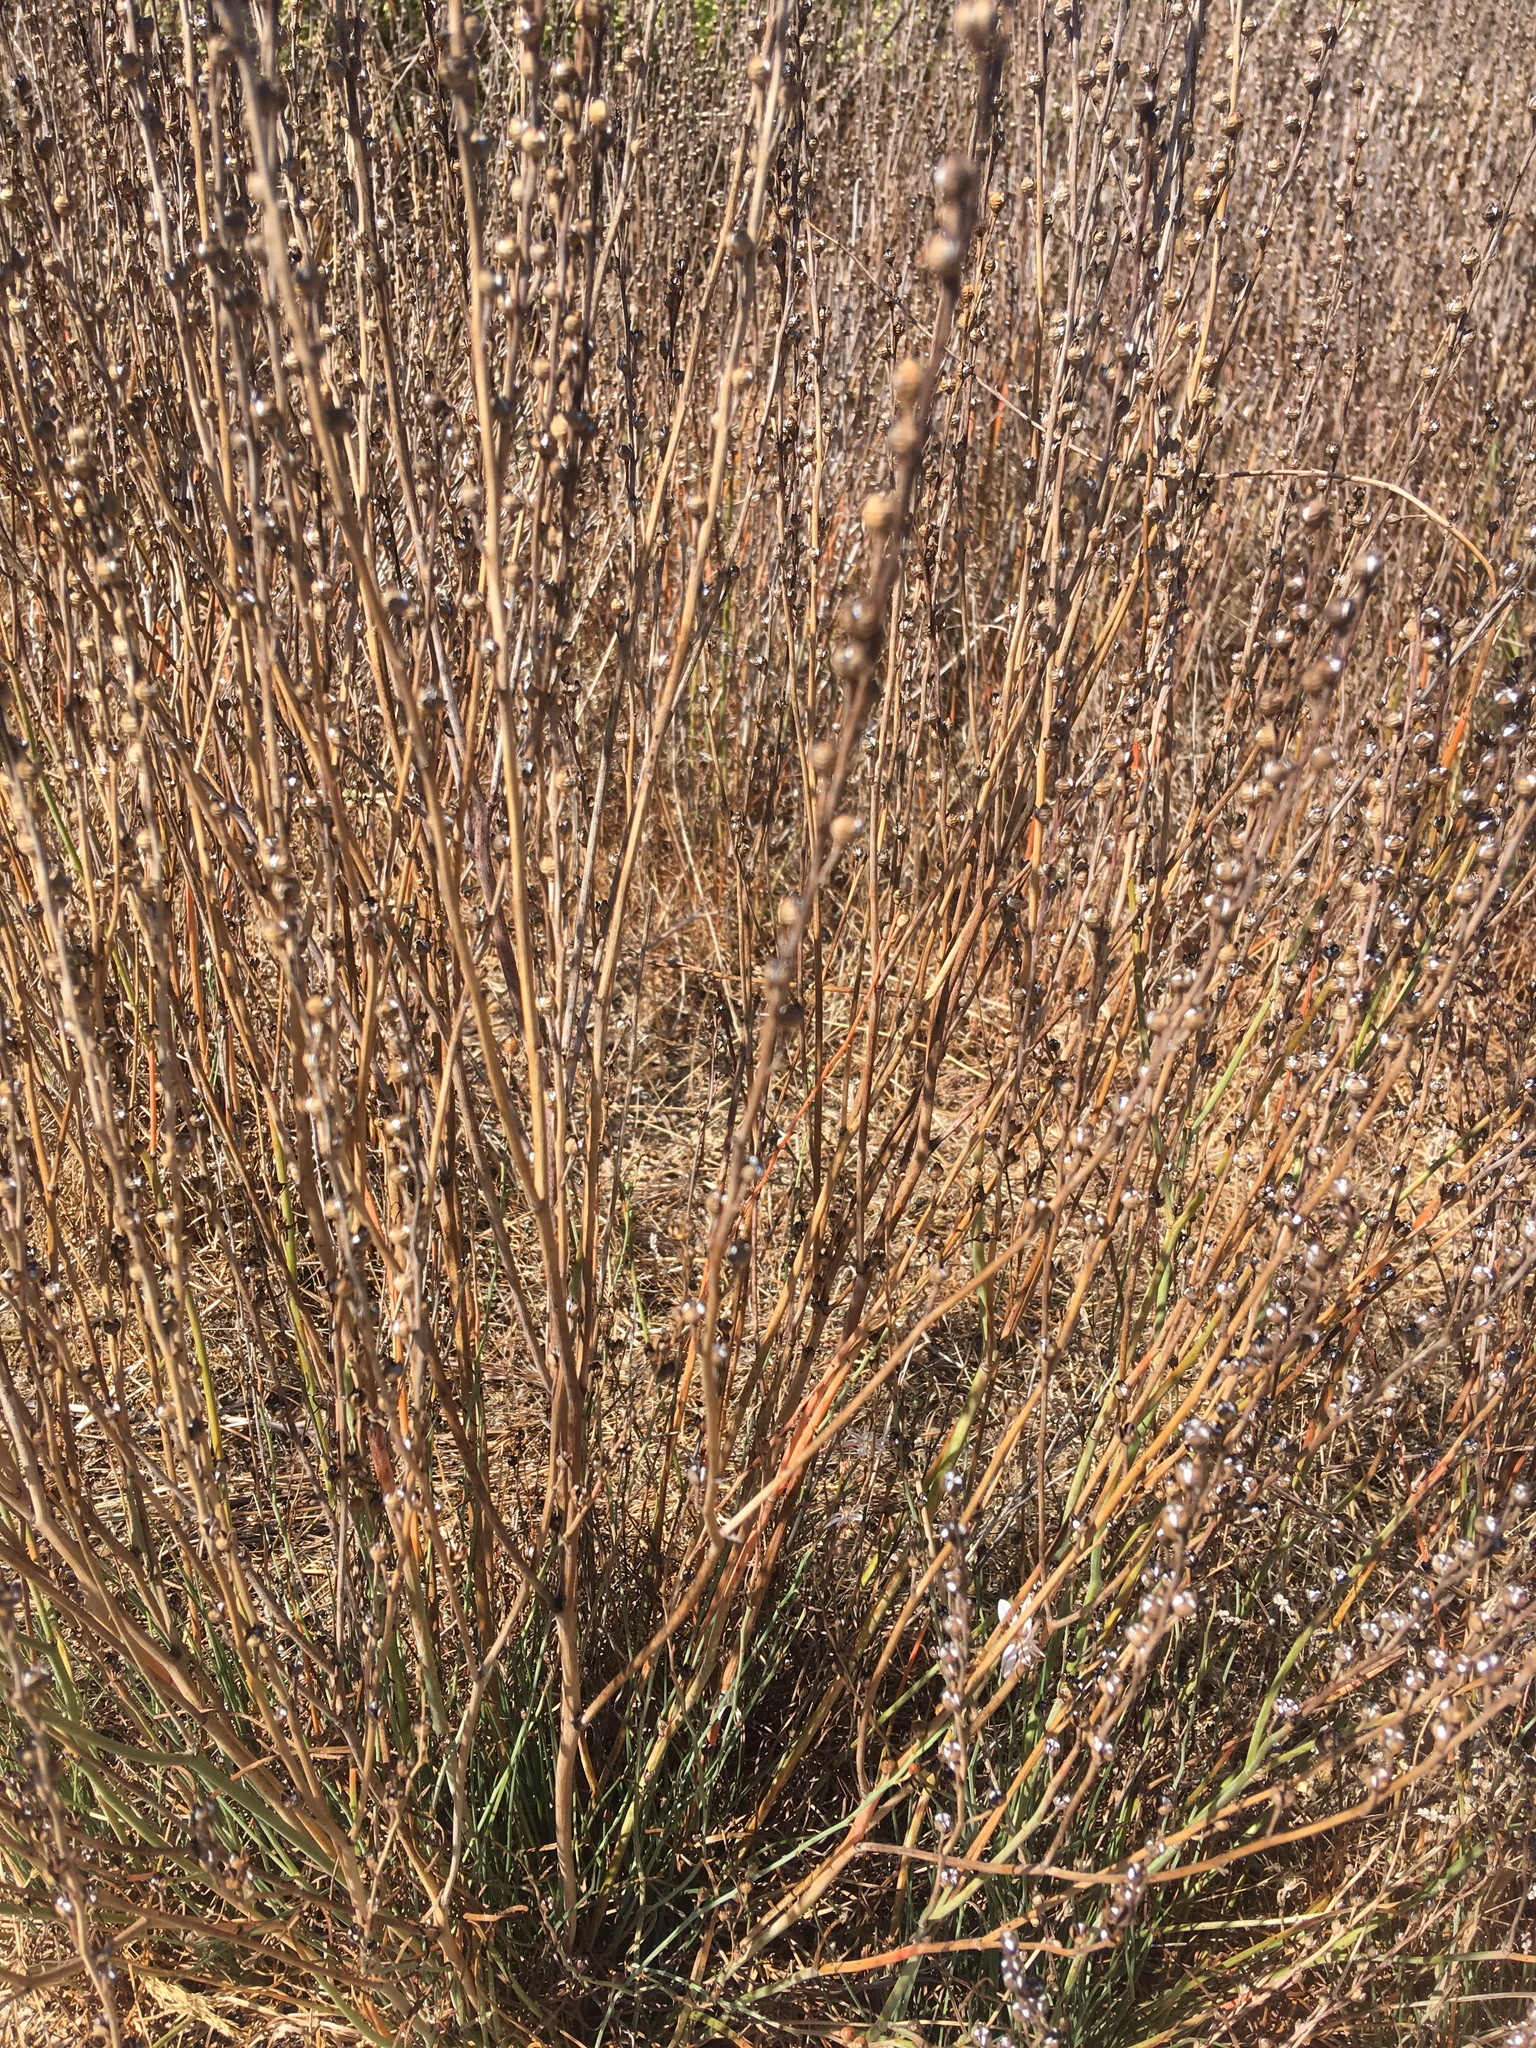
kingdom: Plantae
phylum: Tracheophyta
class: Liliopsida
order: Asparagales
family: Asphodelaceae
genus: Asphodelus
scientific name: Asphodelus fistulosus
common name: Onionweed
